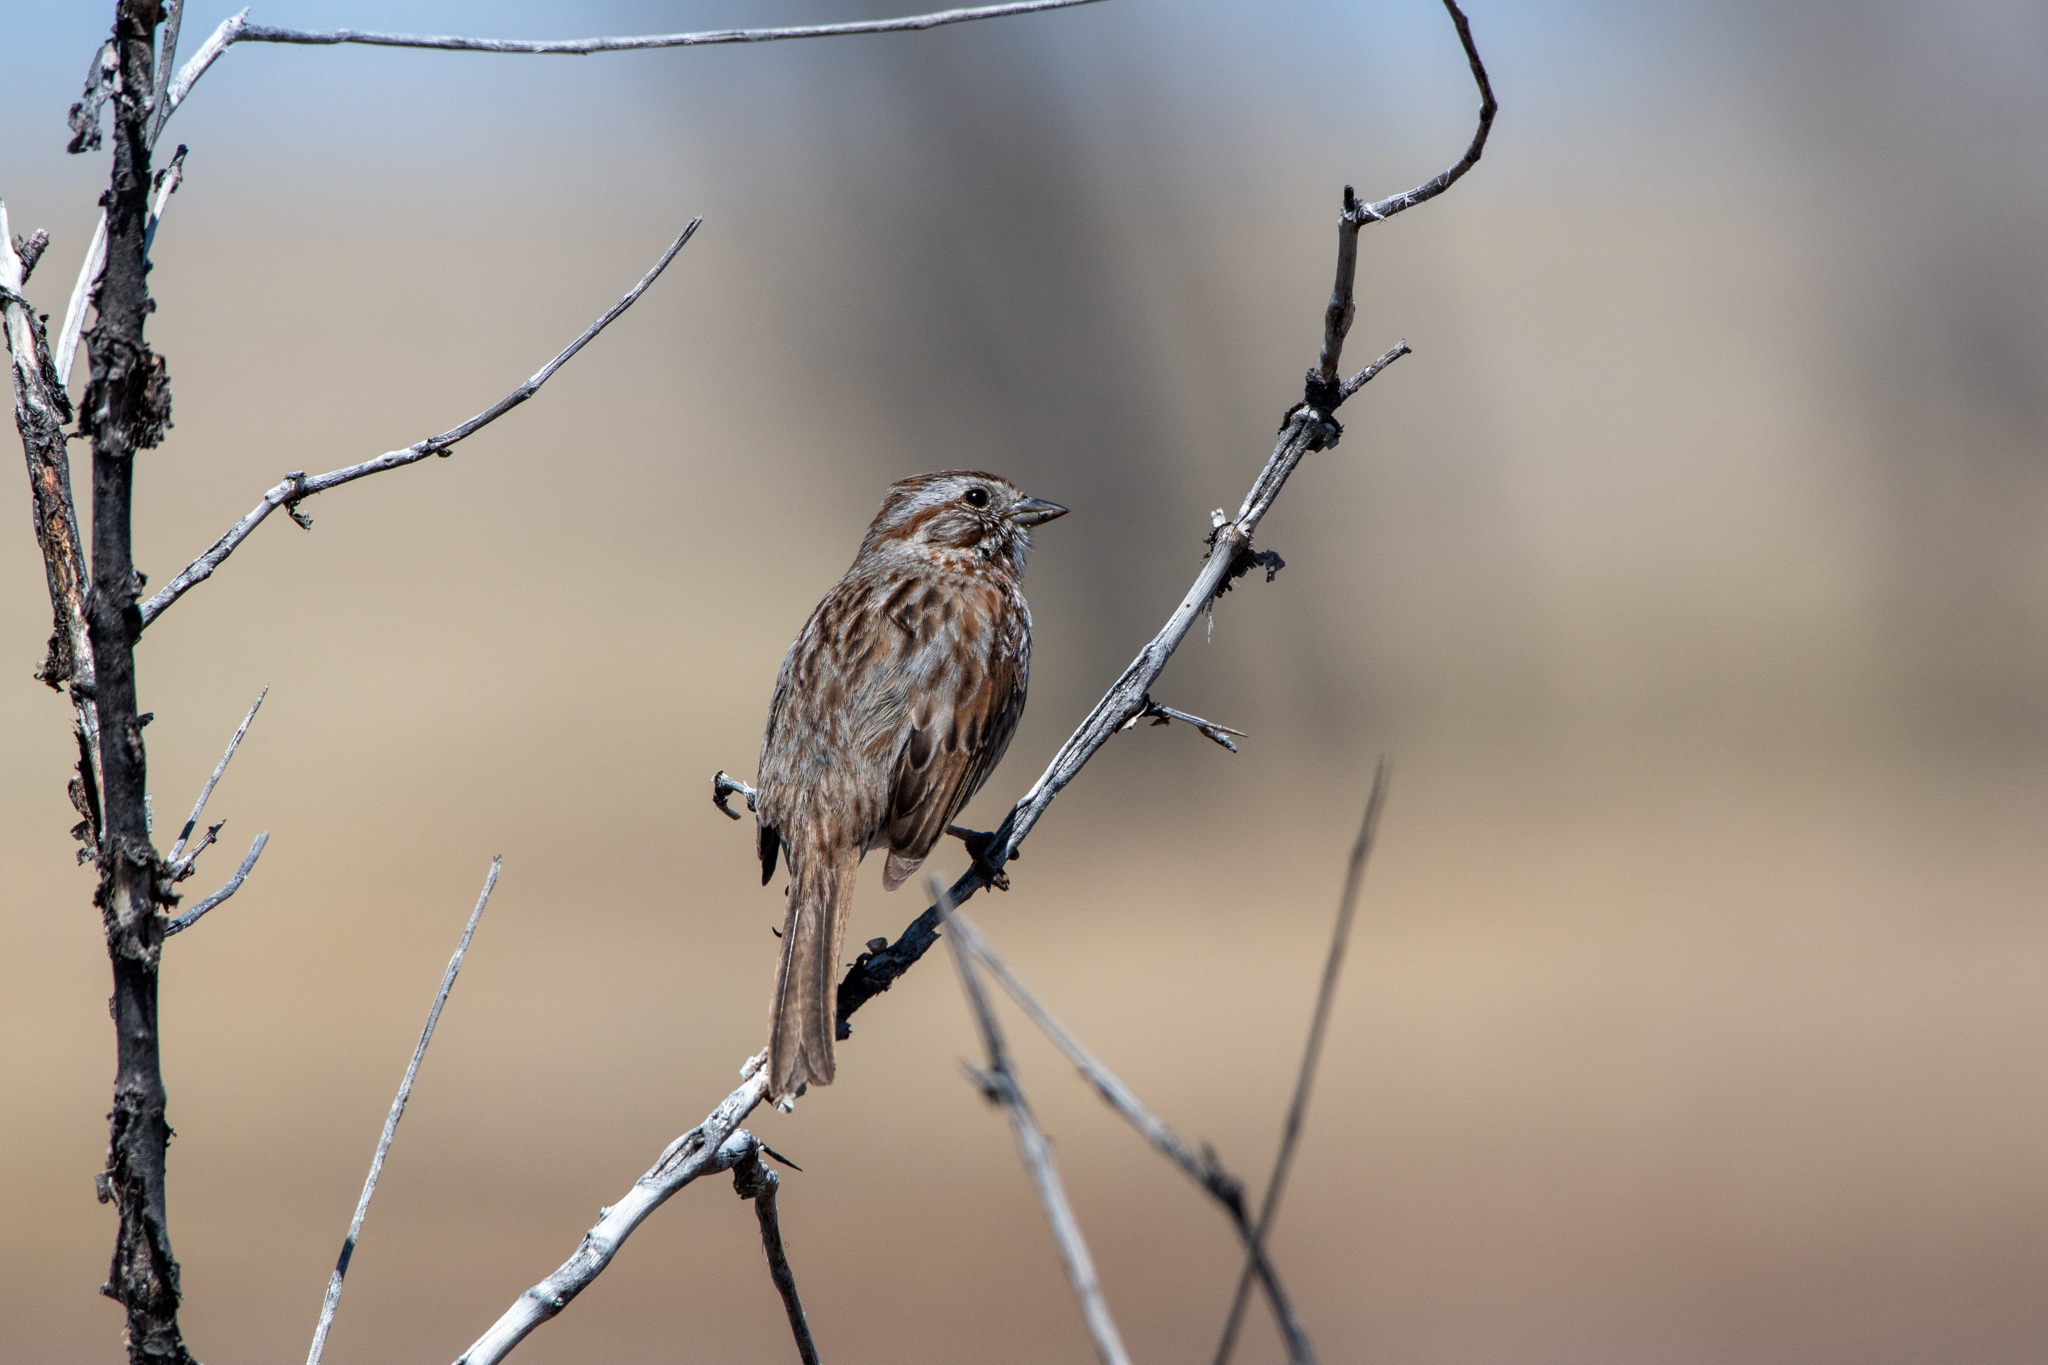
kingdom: Animalia
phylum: Chordata
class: Aves
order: Passeriformes
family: Passerellidae
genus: Melospiza
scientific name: Melospiza melodia
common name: Song sparrow
